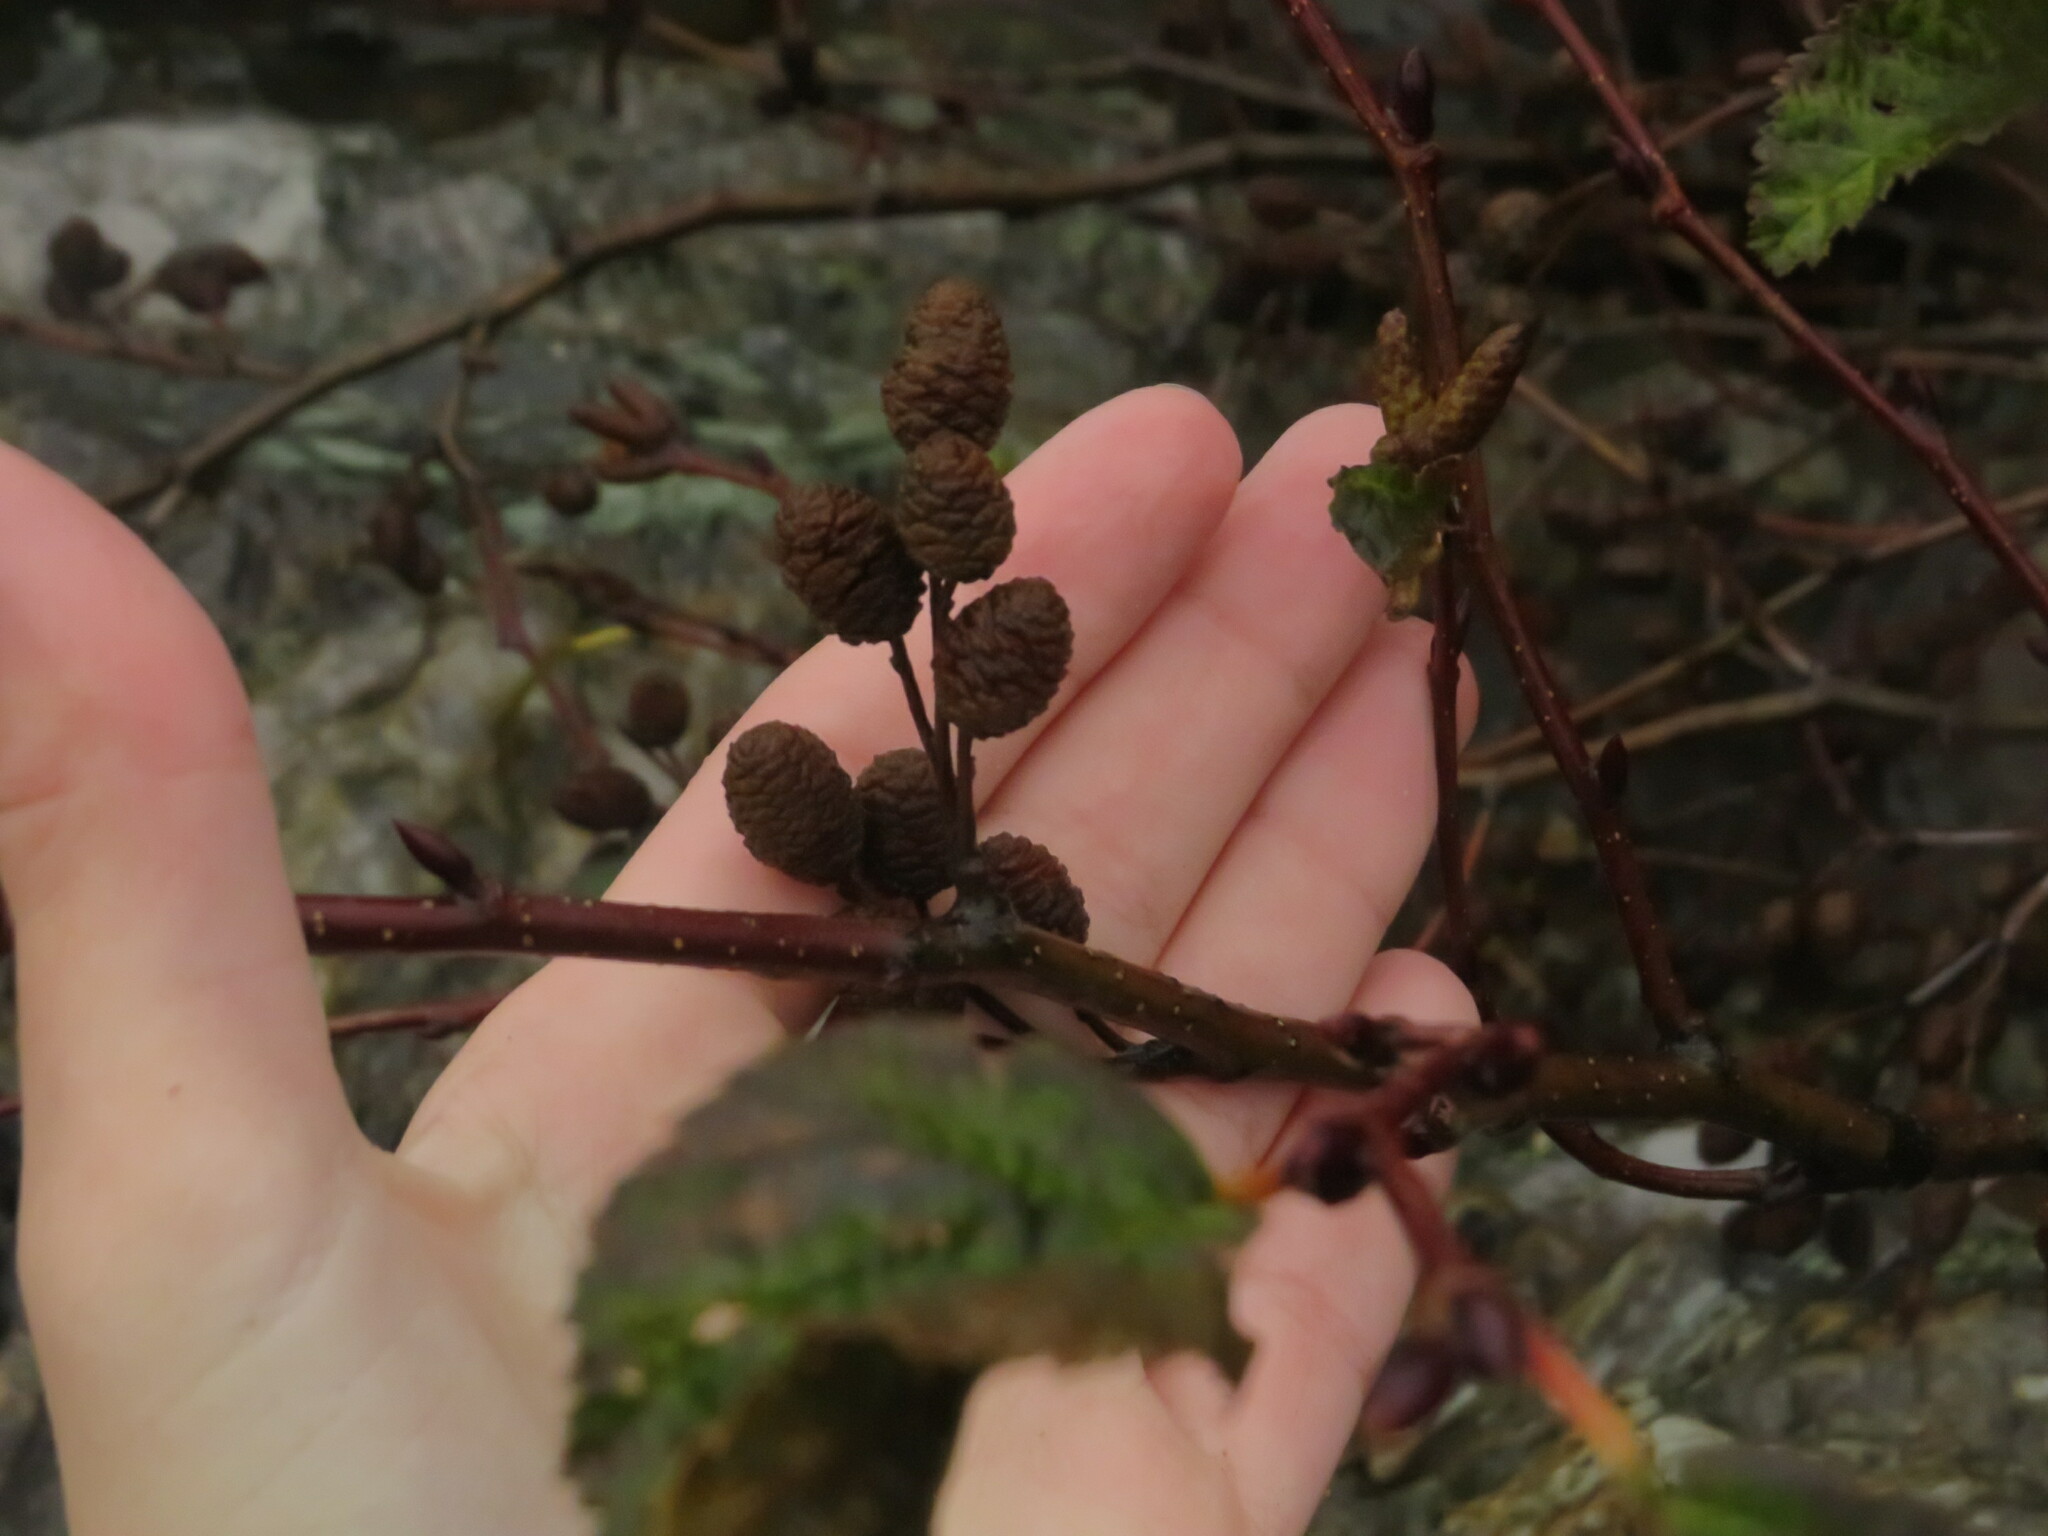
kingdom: Plantae
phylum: Tracheophyta
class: Magnoliopsida
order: Fagales
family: Betulaceae
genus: Alnus
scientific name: Alnus alnobetula
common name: Green alder
